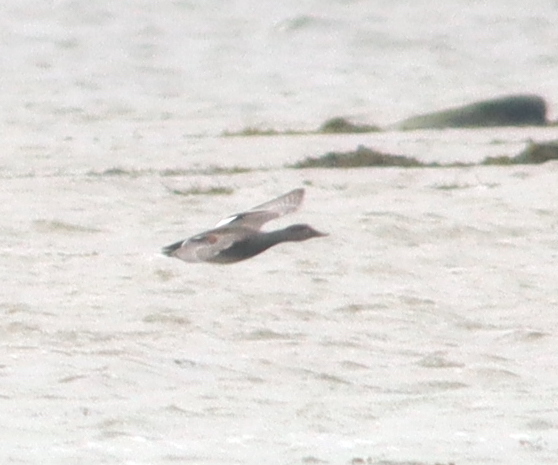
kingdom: Animalia
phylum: Chordata
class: Aves
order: Anseriformes
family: Anatidae
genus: Mareca
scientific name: Mareca strepera
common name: Gadwall
